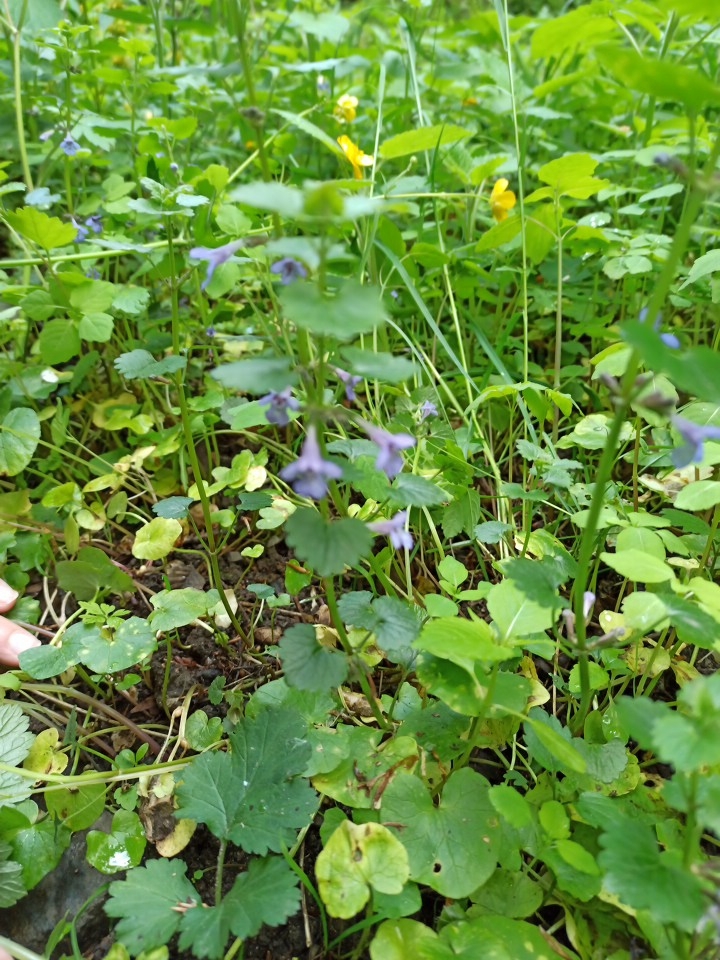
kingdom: Plantae
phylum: Tracheophyta
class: Magnoliopsida
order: Lamiales
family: Lamiaceae
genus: Glechoma
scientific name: Glechoma hederacea
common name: Ground ivy
